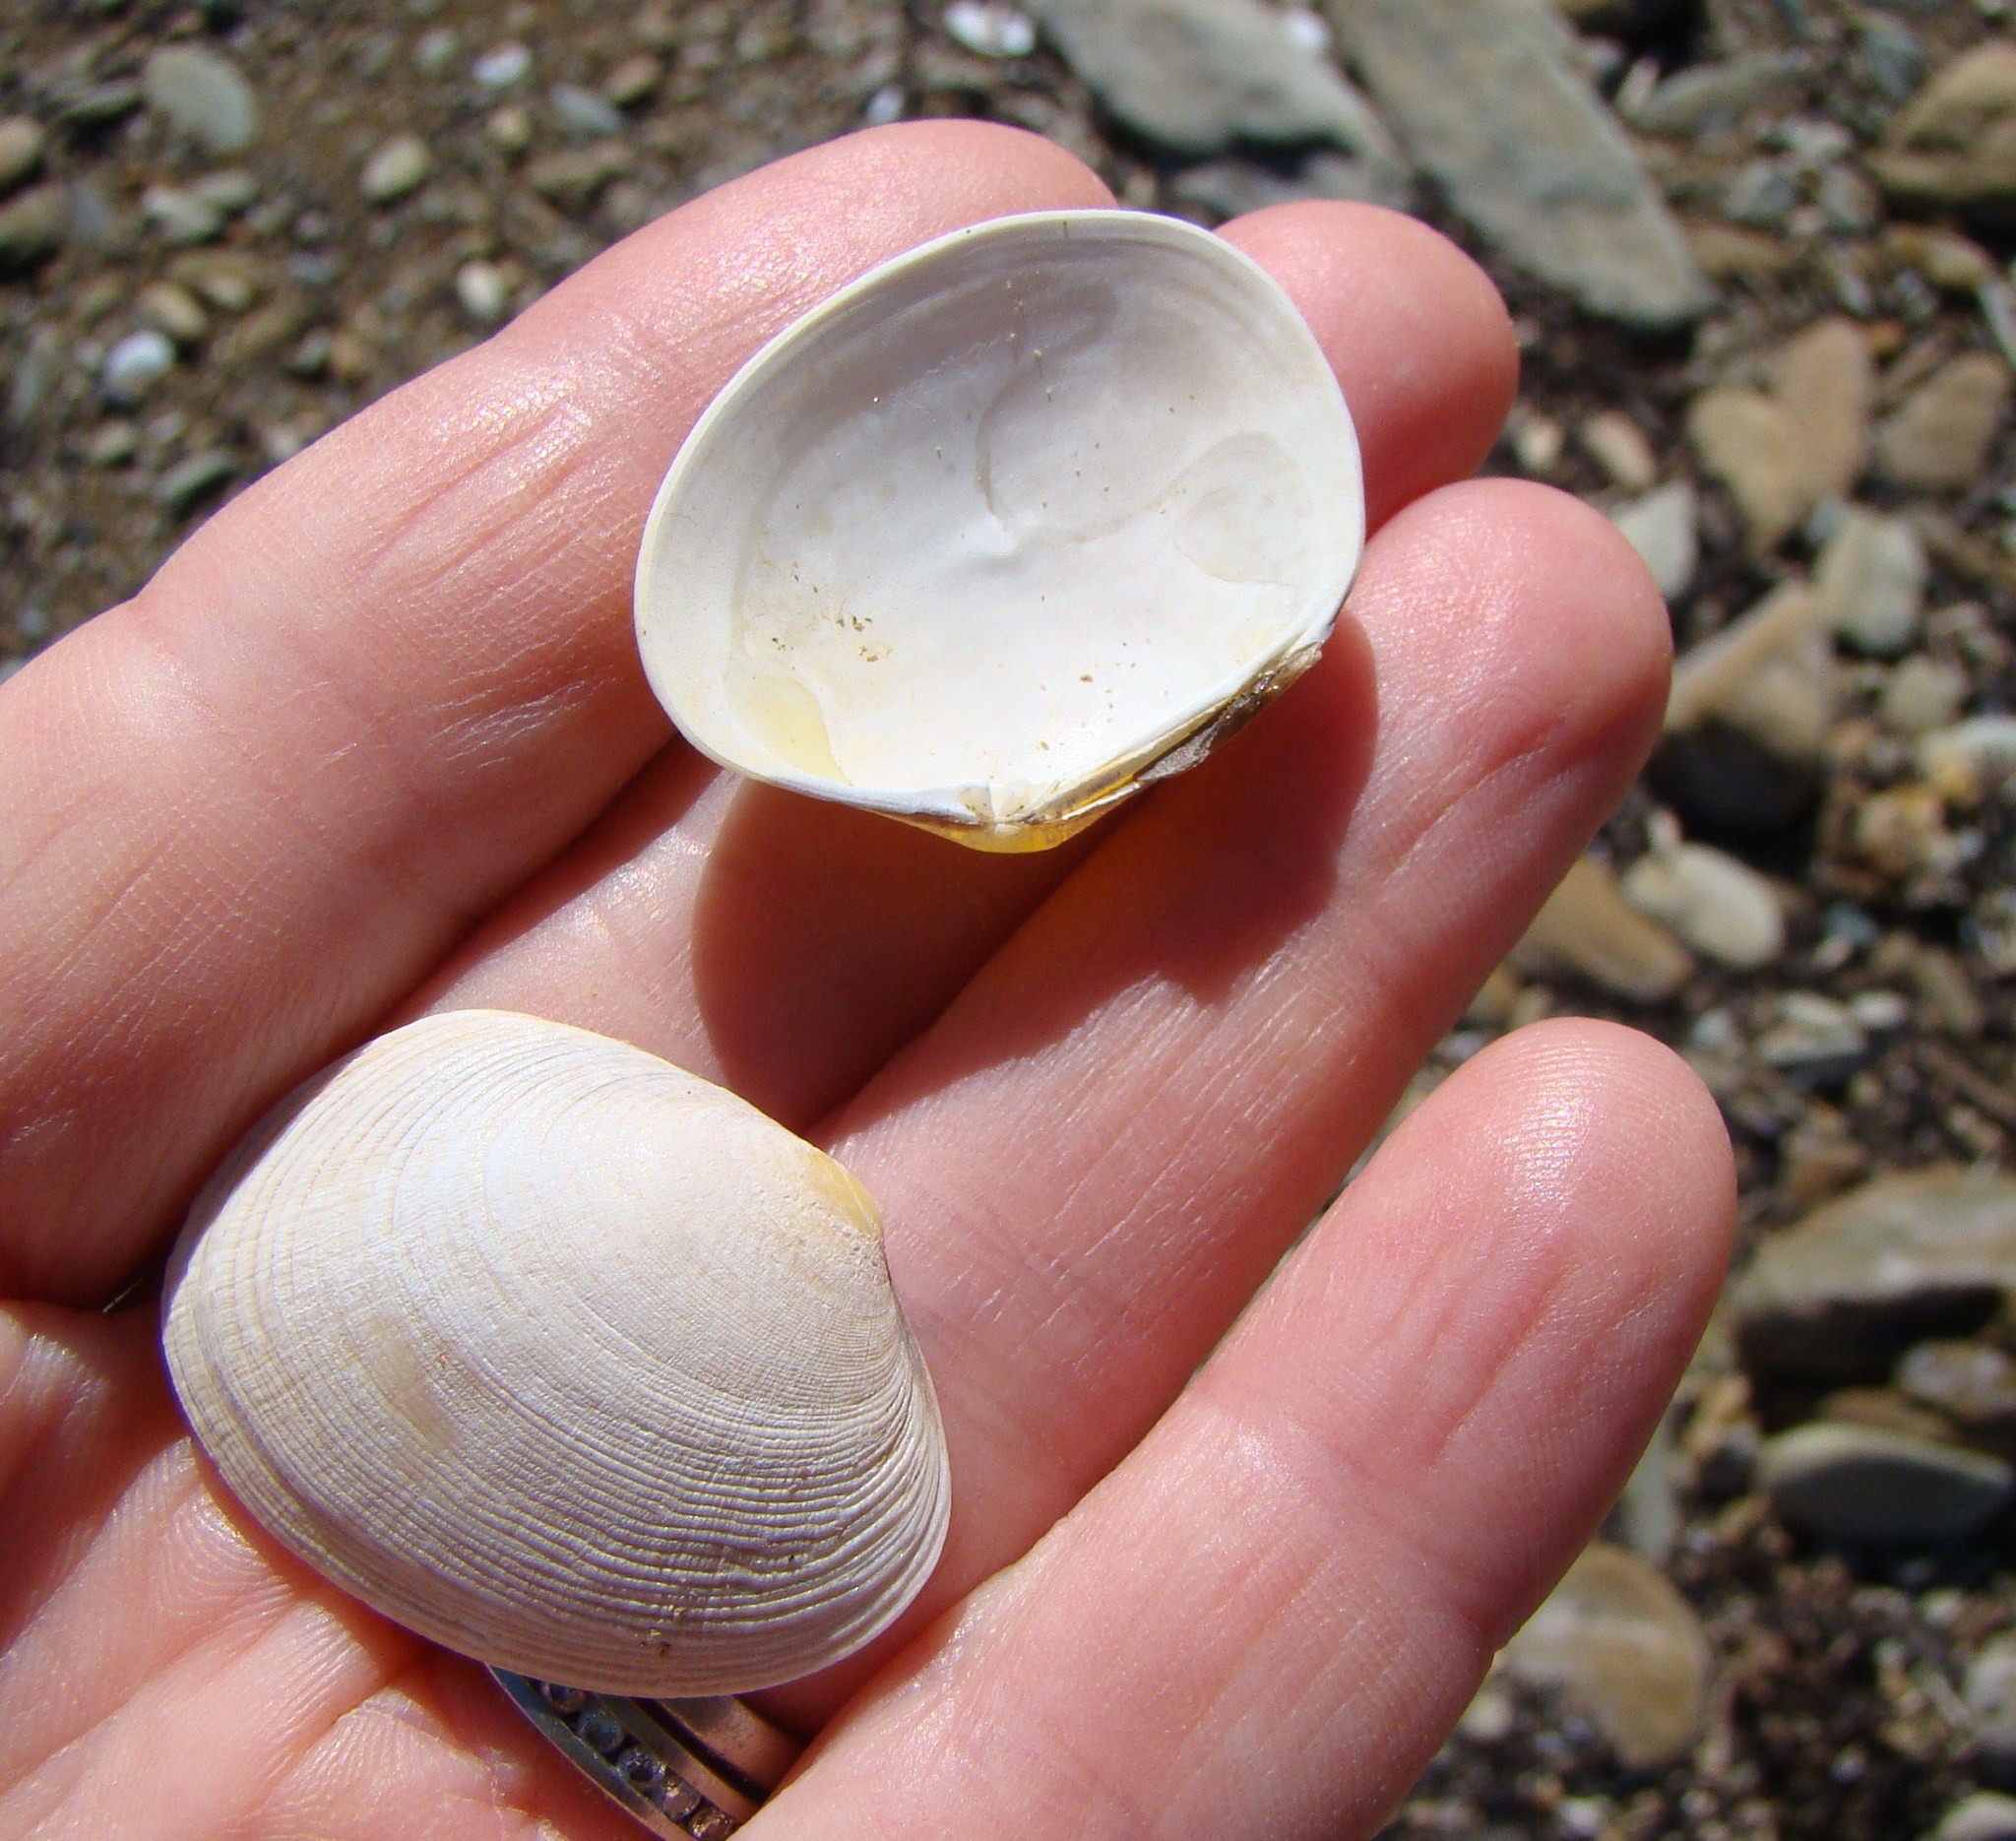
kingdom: Animalia
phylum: Mollusca
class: Bivalvia
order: Venerida
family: Veneridae
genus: Venerupis
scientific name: Venerupis largillierti
